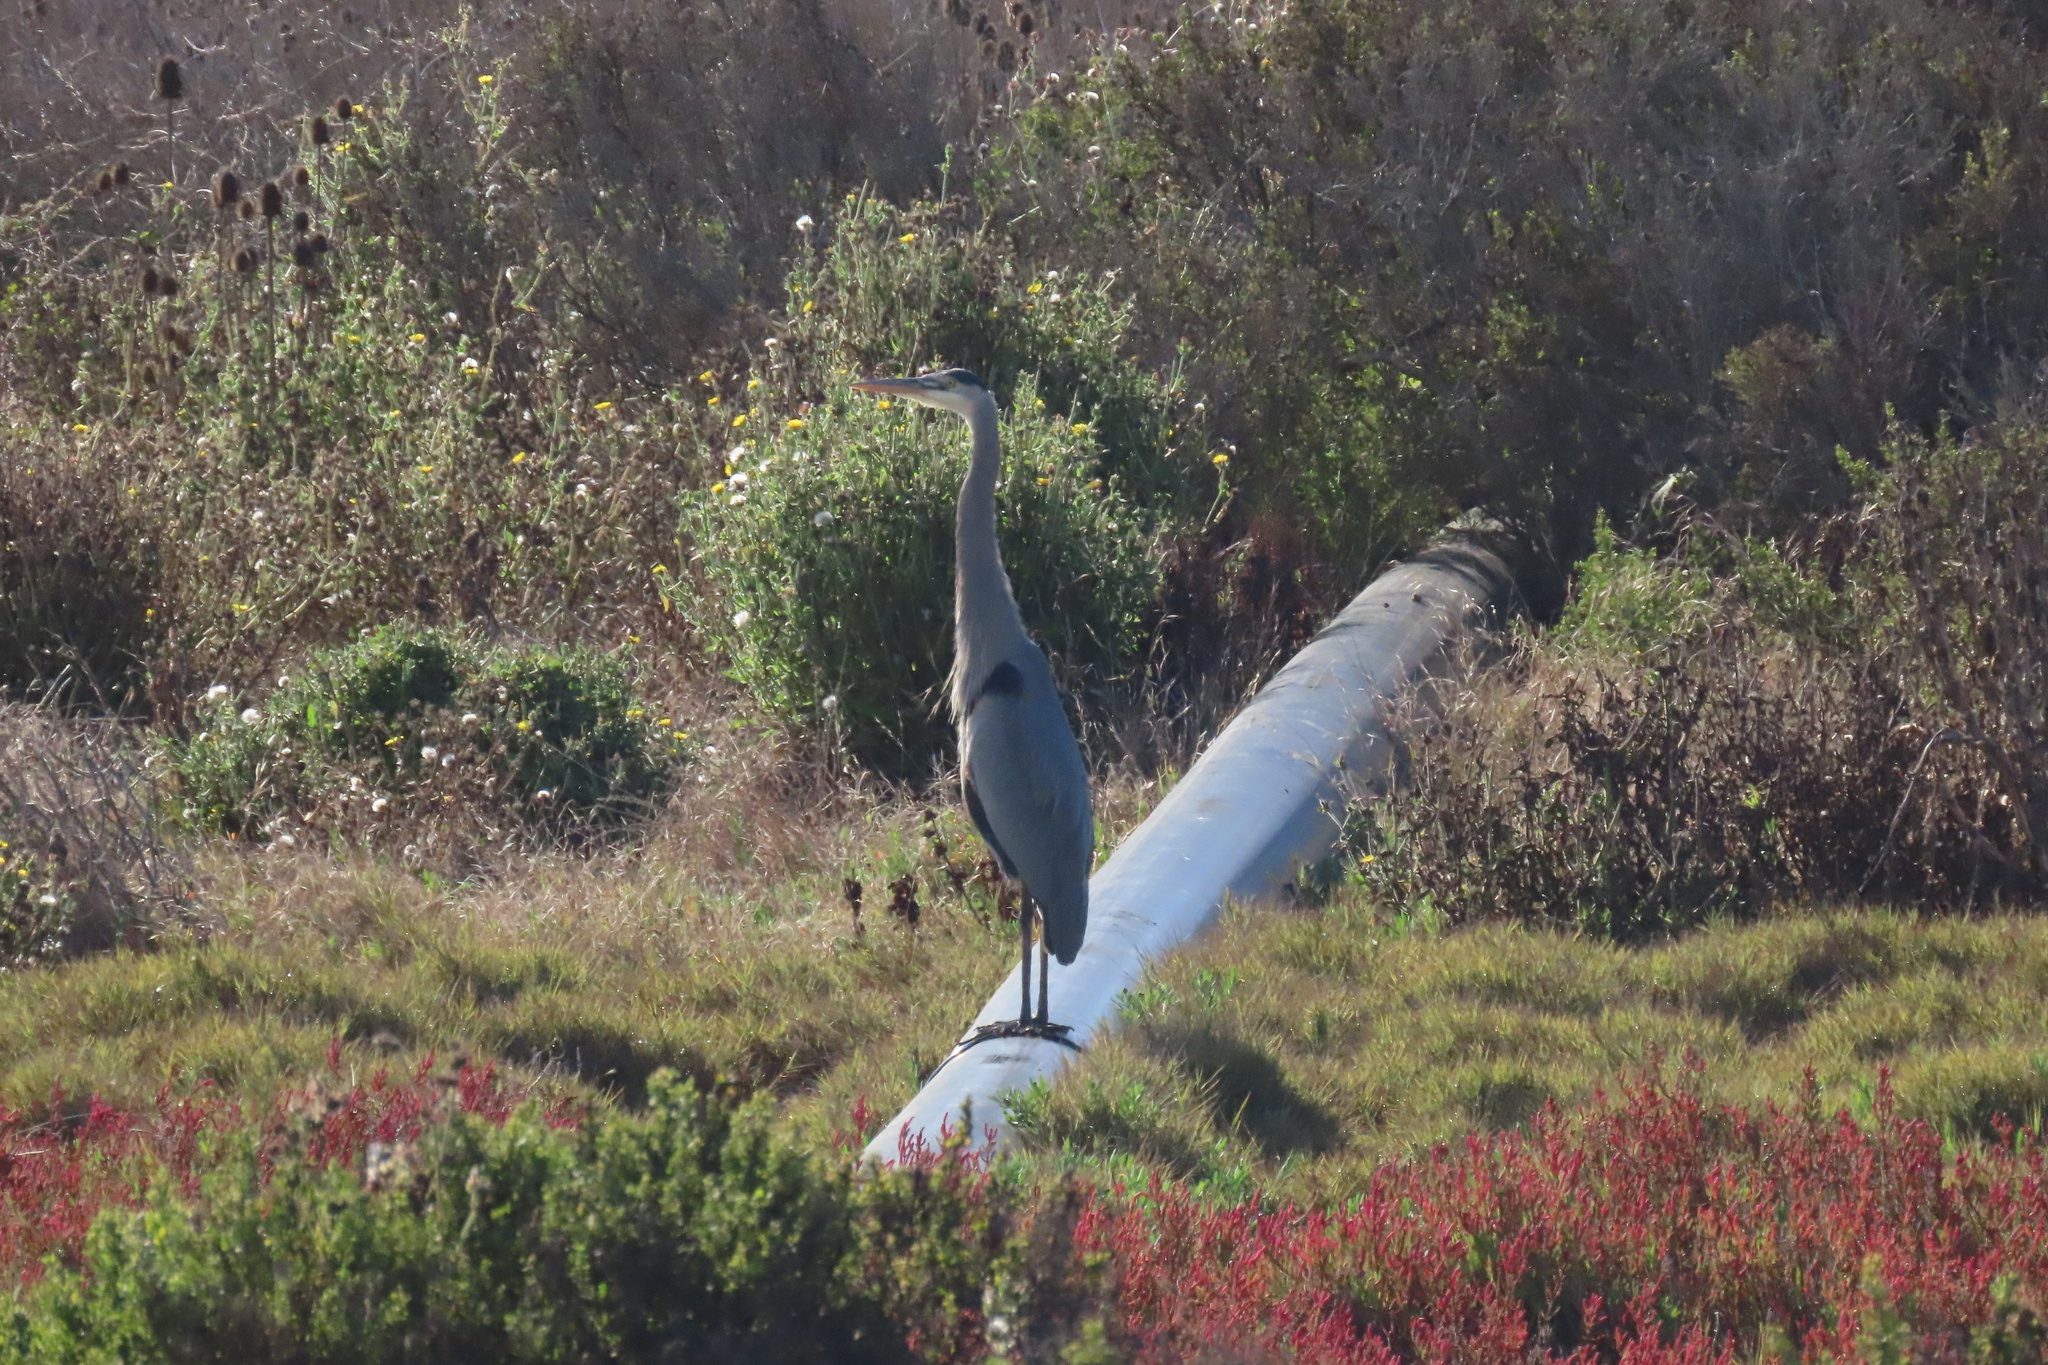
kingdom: Animalia
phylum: Chordata
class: Aves
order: Pelecaniformes
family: Ardeidae
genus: Ardea
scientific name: Ardea herodias
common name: Great blue heron
